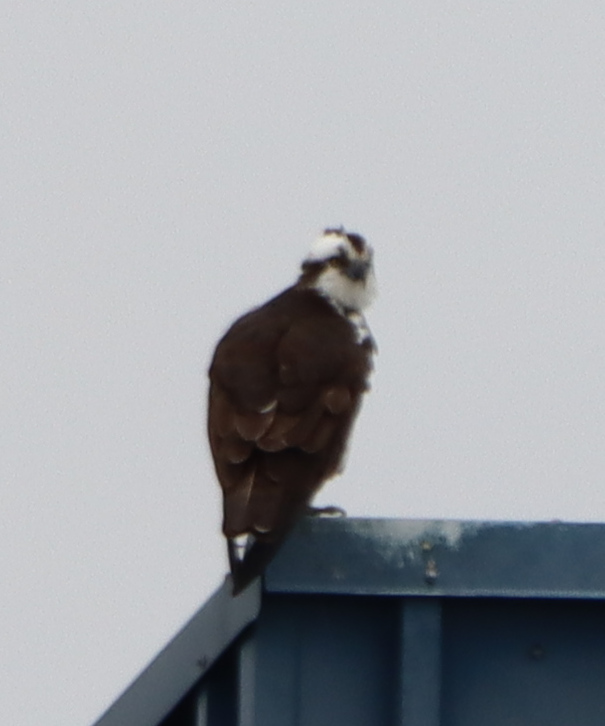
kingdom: Animalia
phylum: Chordata
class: Aves
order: Accipitriformes
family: Pandionidae
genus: Pandion
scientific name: Pandion haliaetus
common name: Osprey
